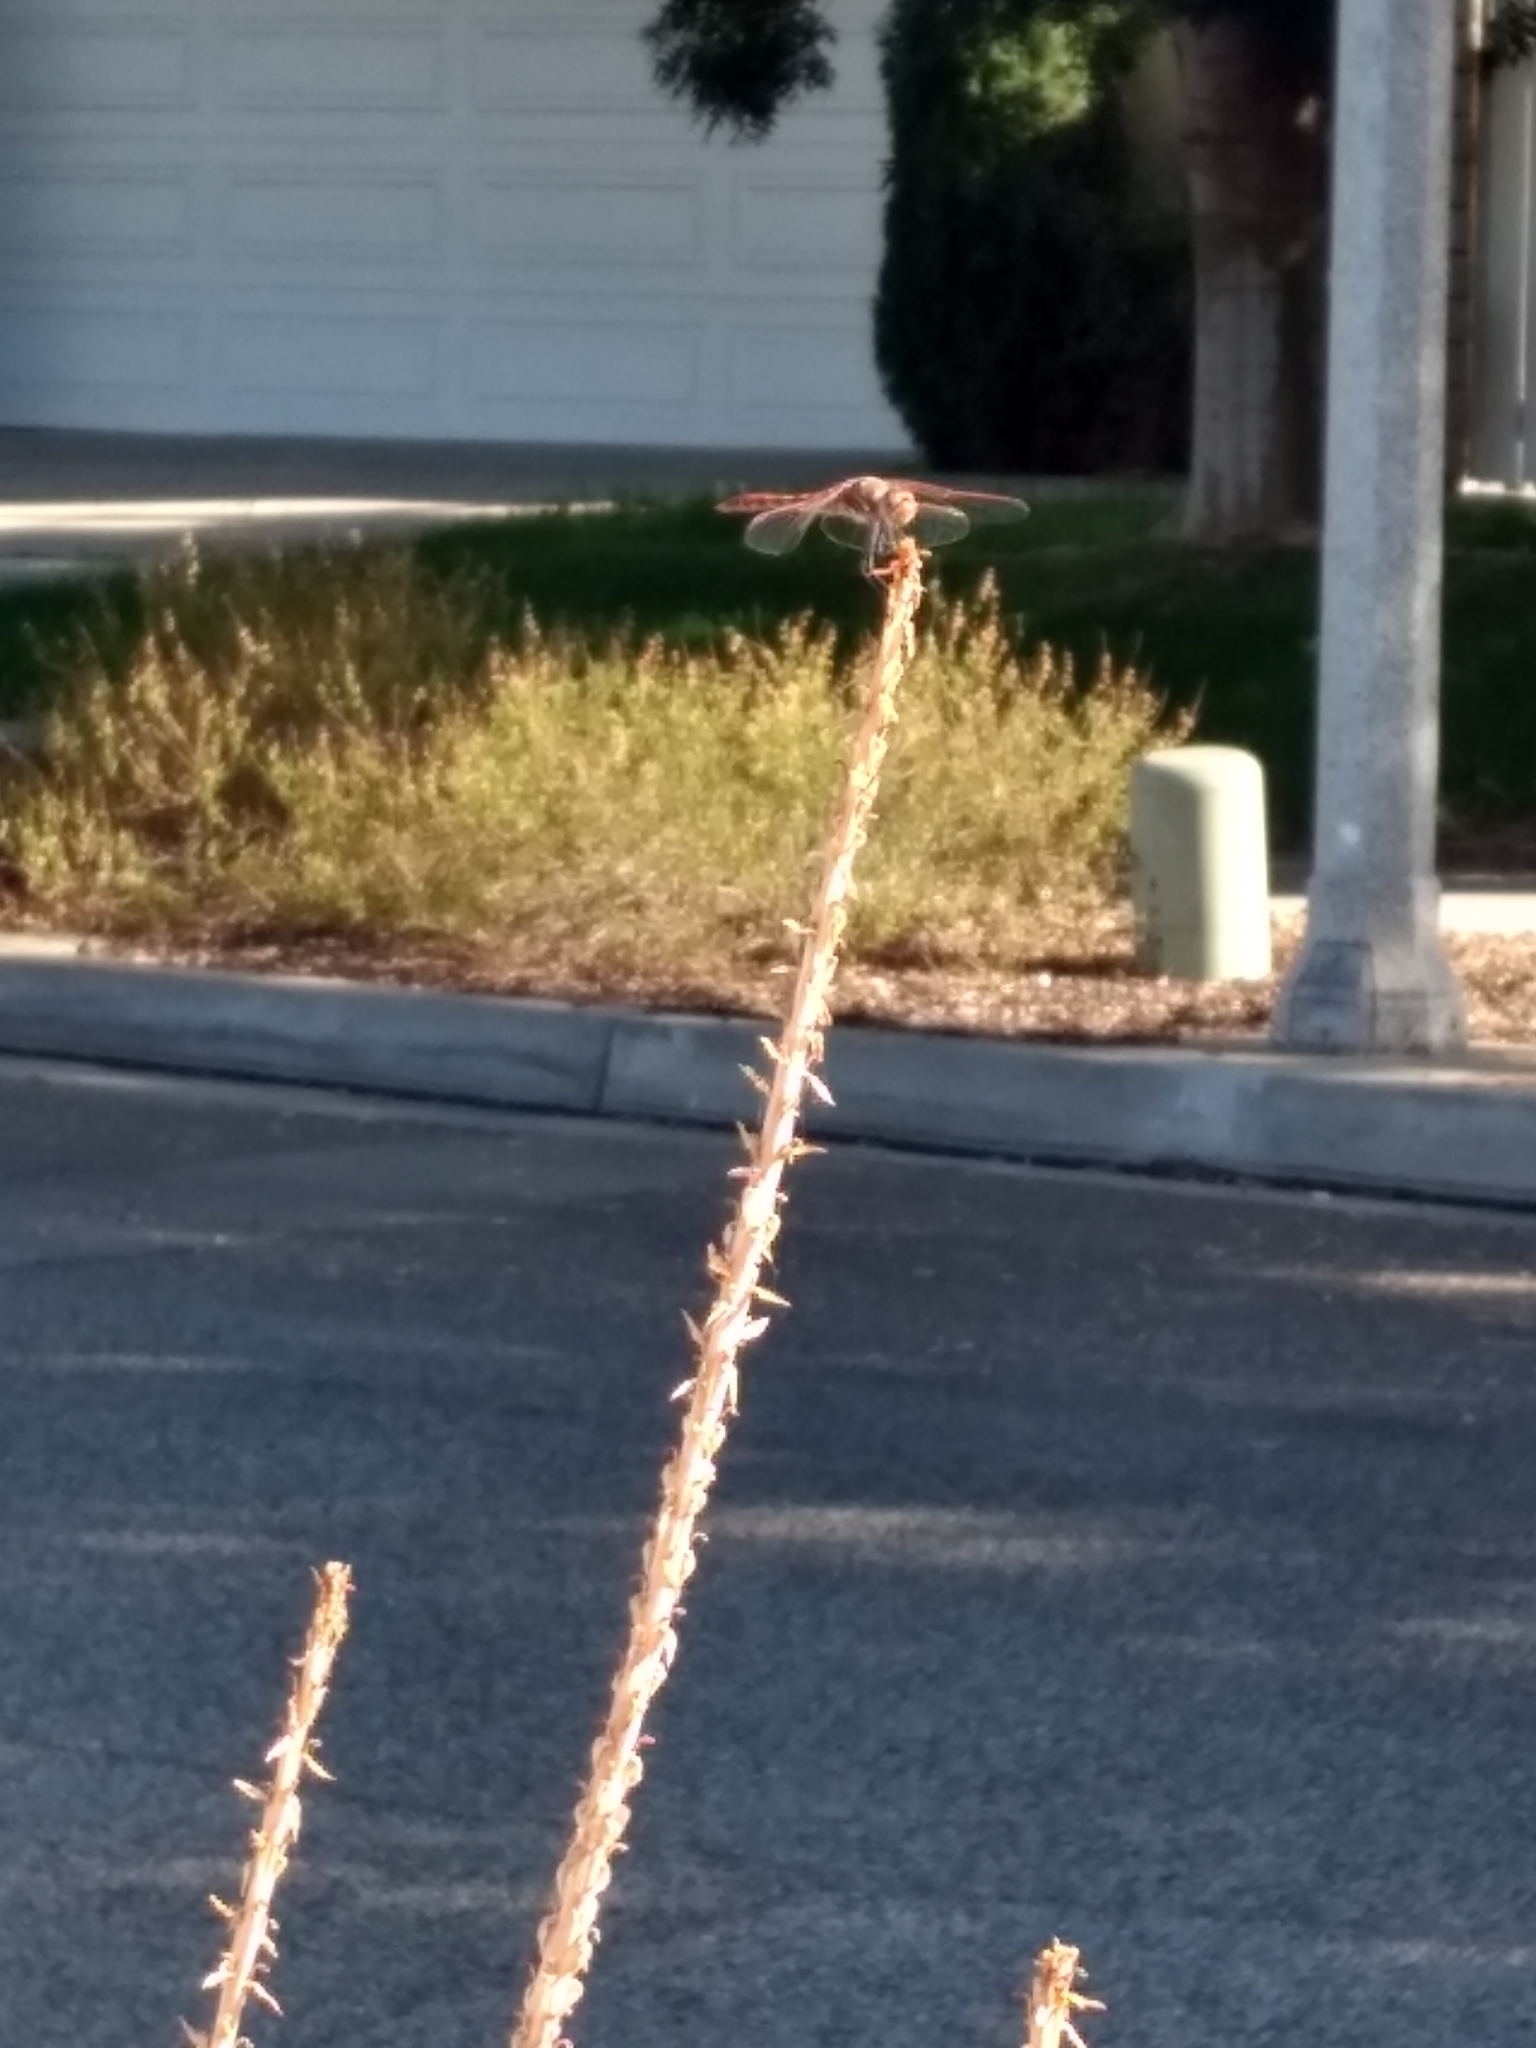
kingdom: Animalia
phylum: Arthropoda
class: Insecta
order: Odonata
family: Libellulidae
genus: Sympetrum
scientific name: Sympetrum corruptum
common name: Variegated meadowhawk
